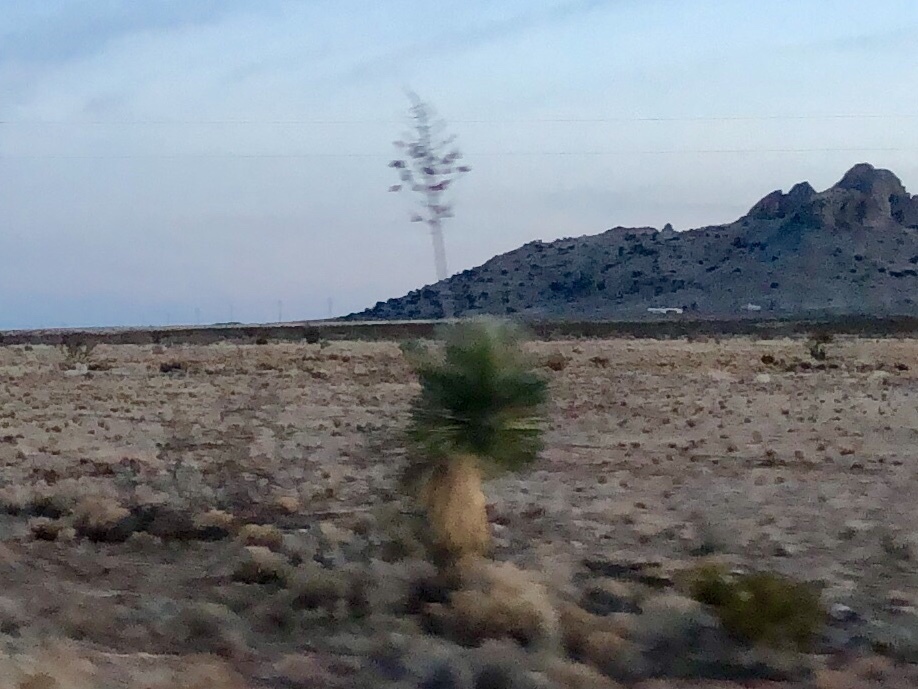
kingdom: Plantae
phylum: Tracheophyta
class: Liliopsida
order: Asparagales
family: Asparagaceae
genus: Yucca
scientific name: Yucca elata
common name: Palmella
